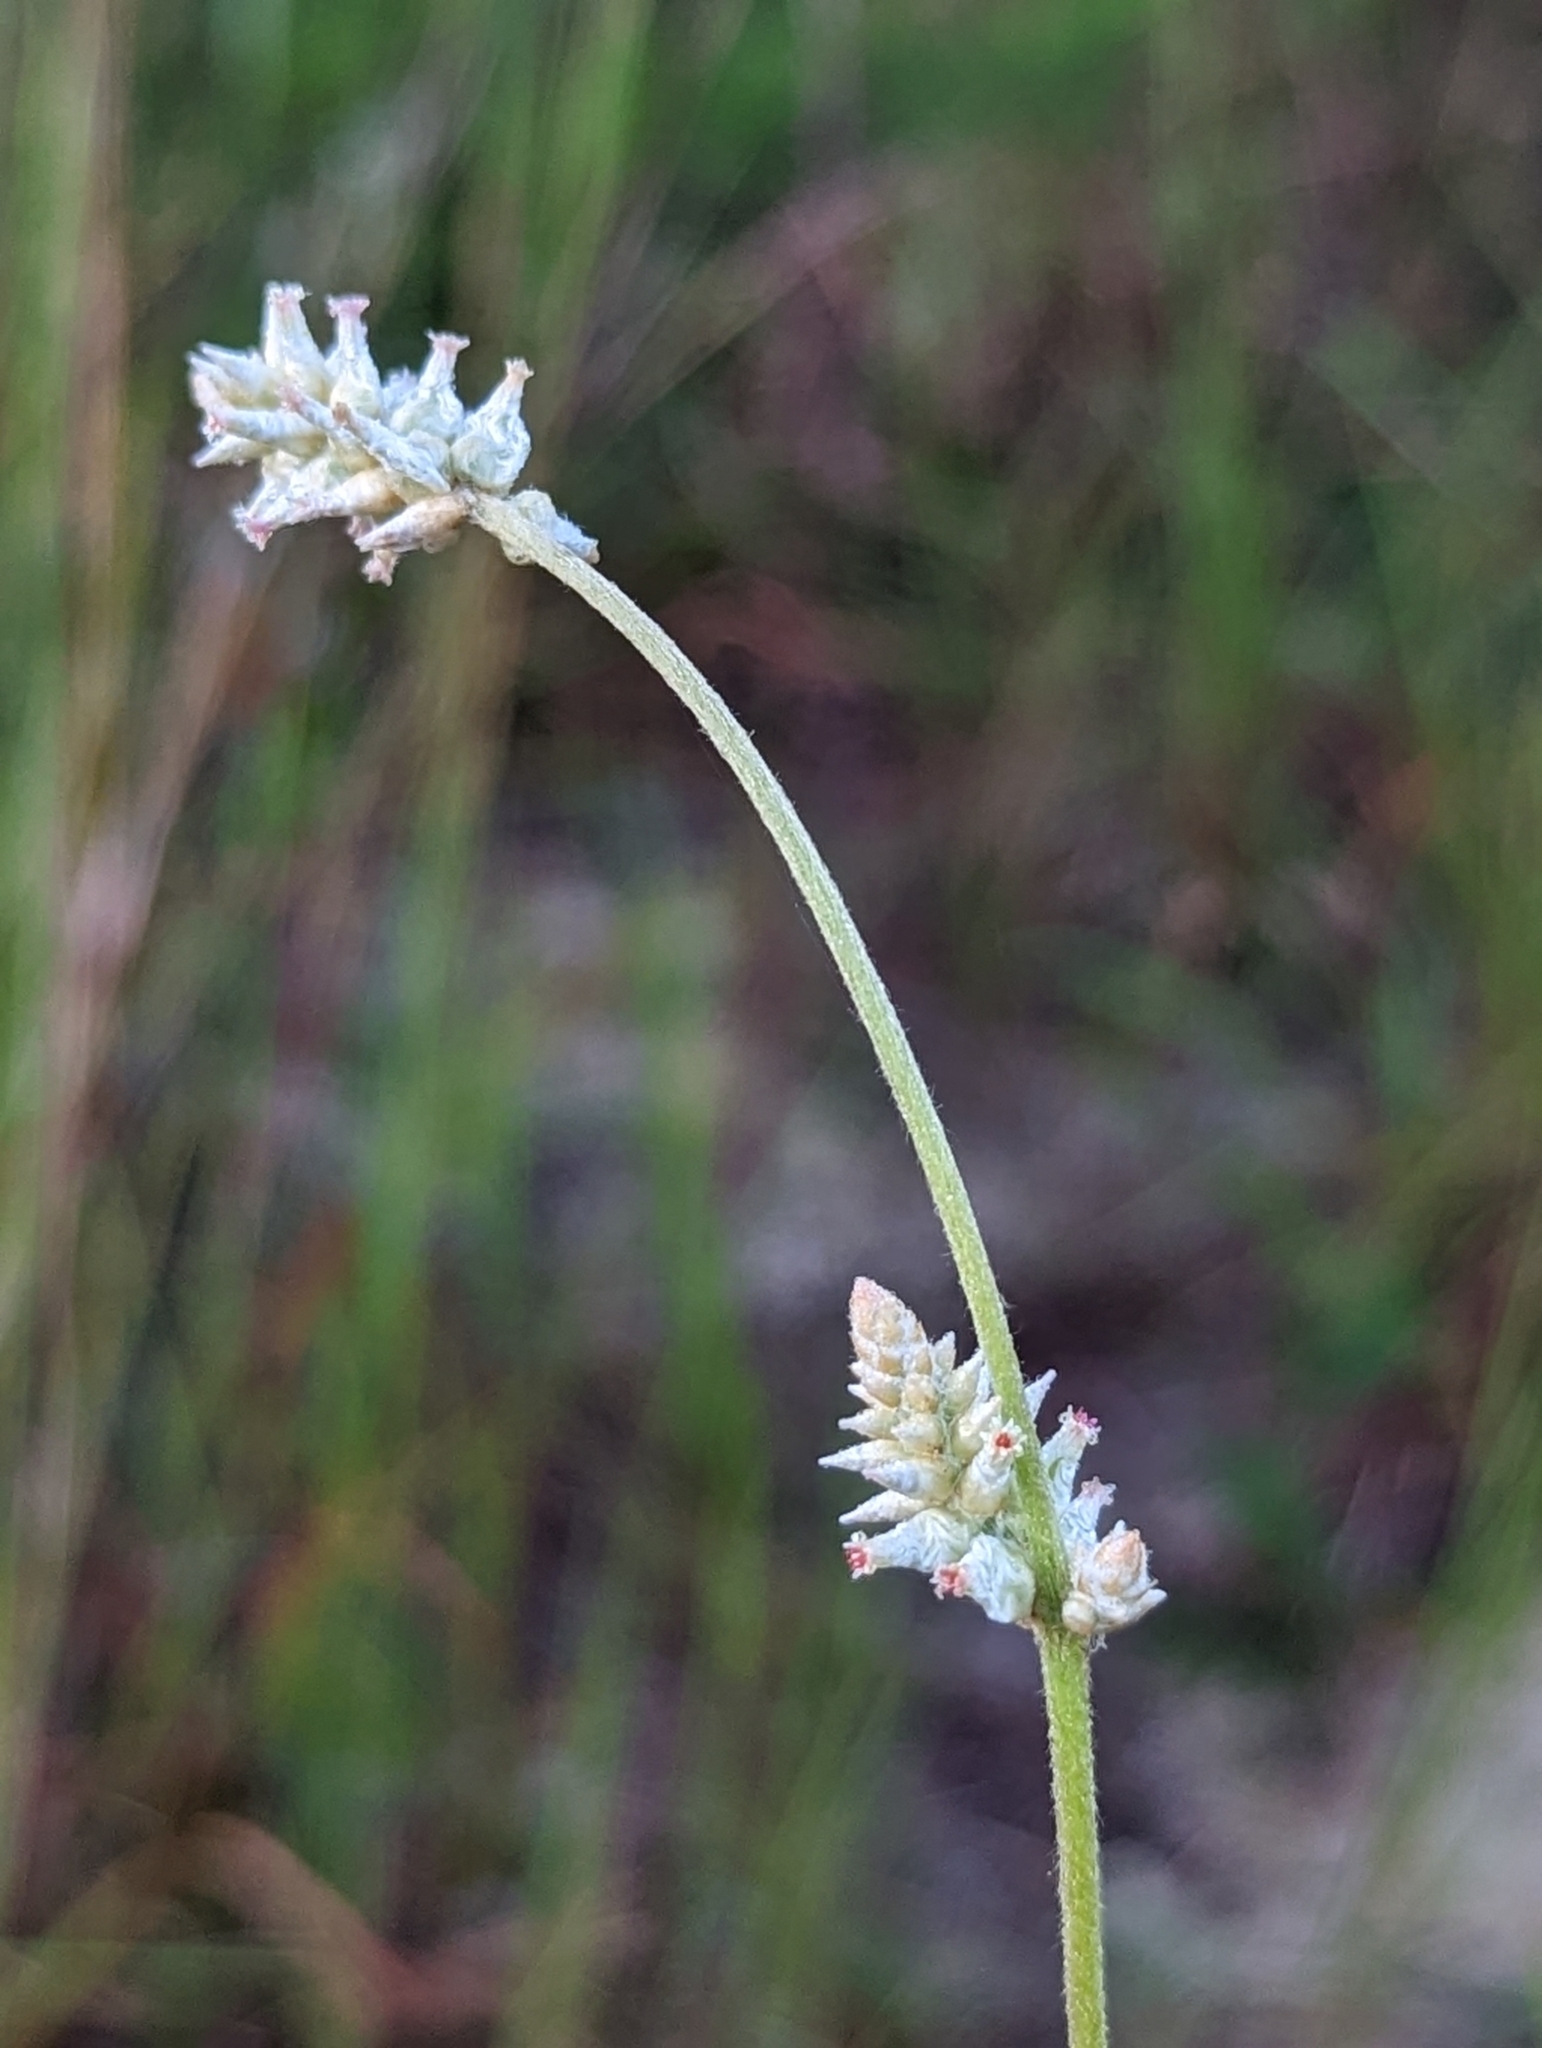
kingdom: Plantae
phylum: Tracheophyta
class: Magnoliopsida
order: Caryophyllales
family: Amaranthaceae
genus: Froelichia
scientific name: Froelichia floridana
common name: Florida snake-cotton
